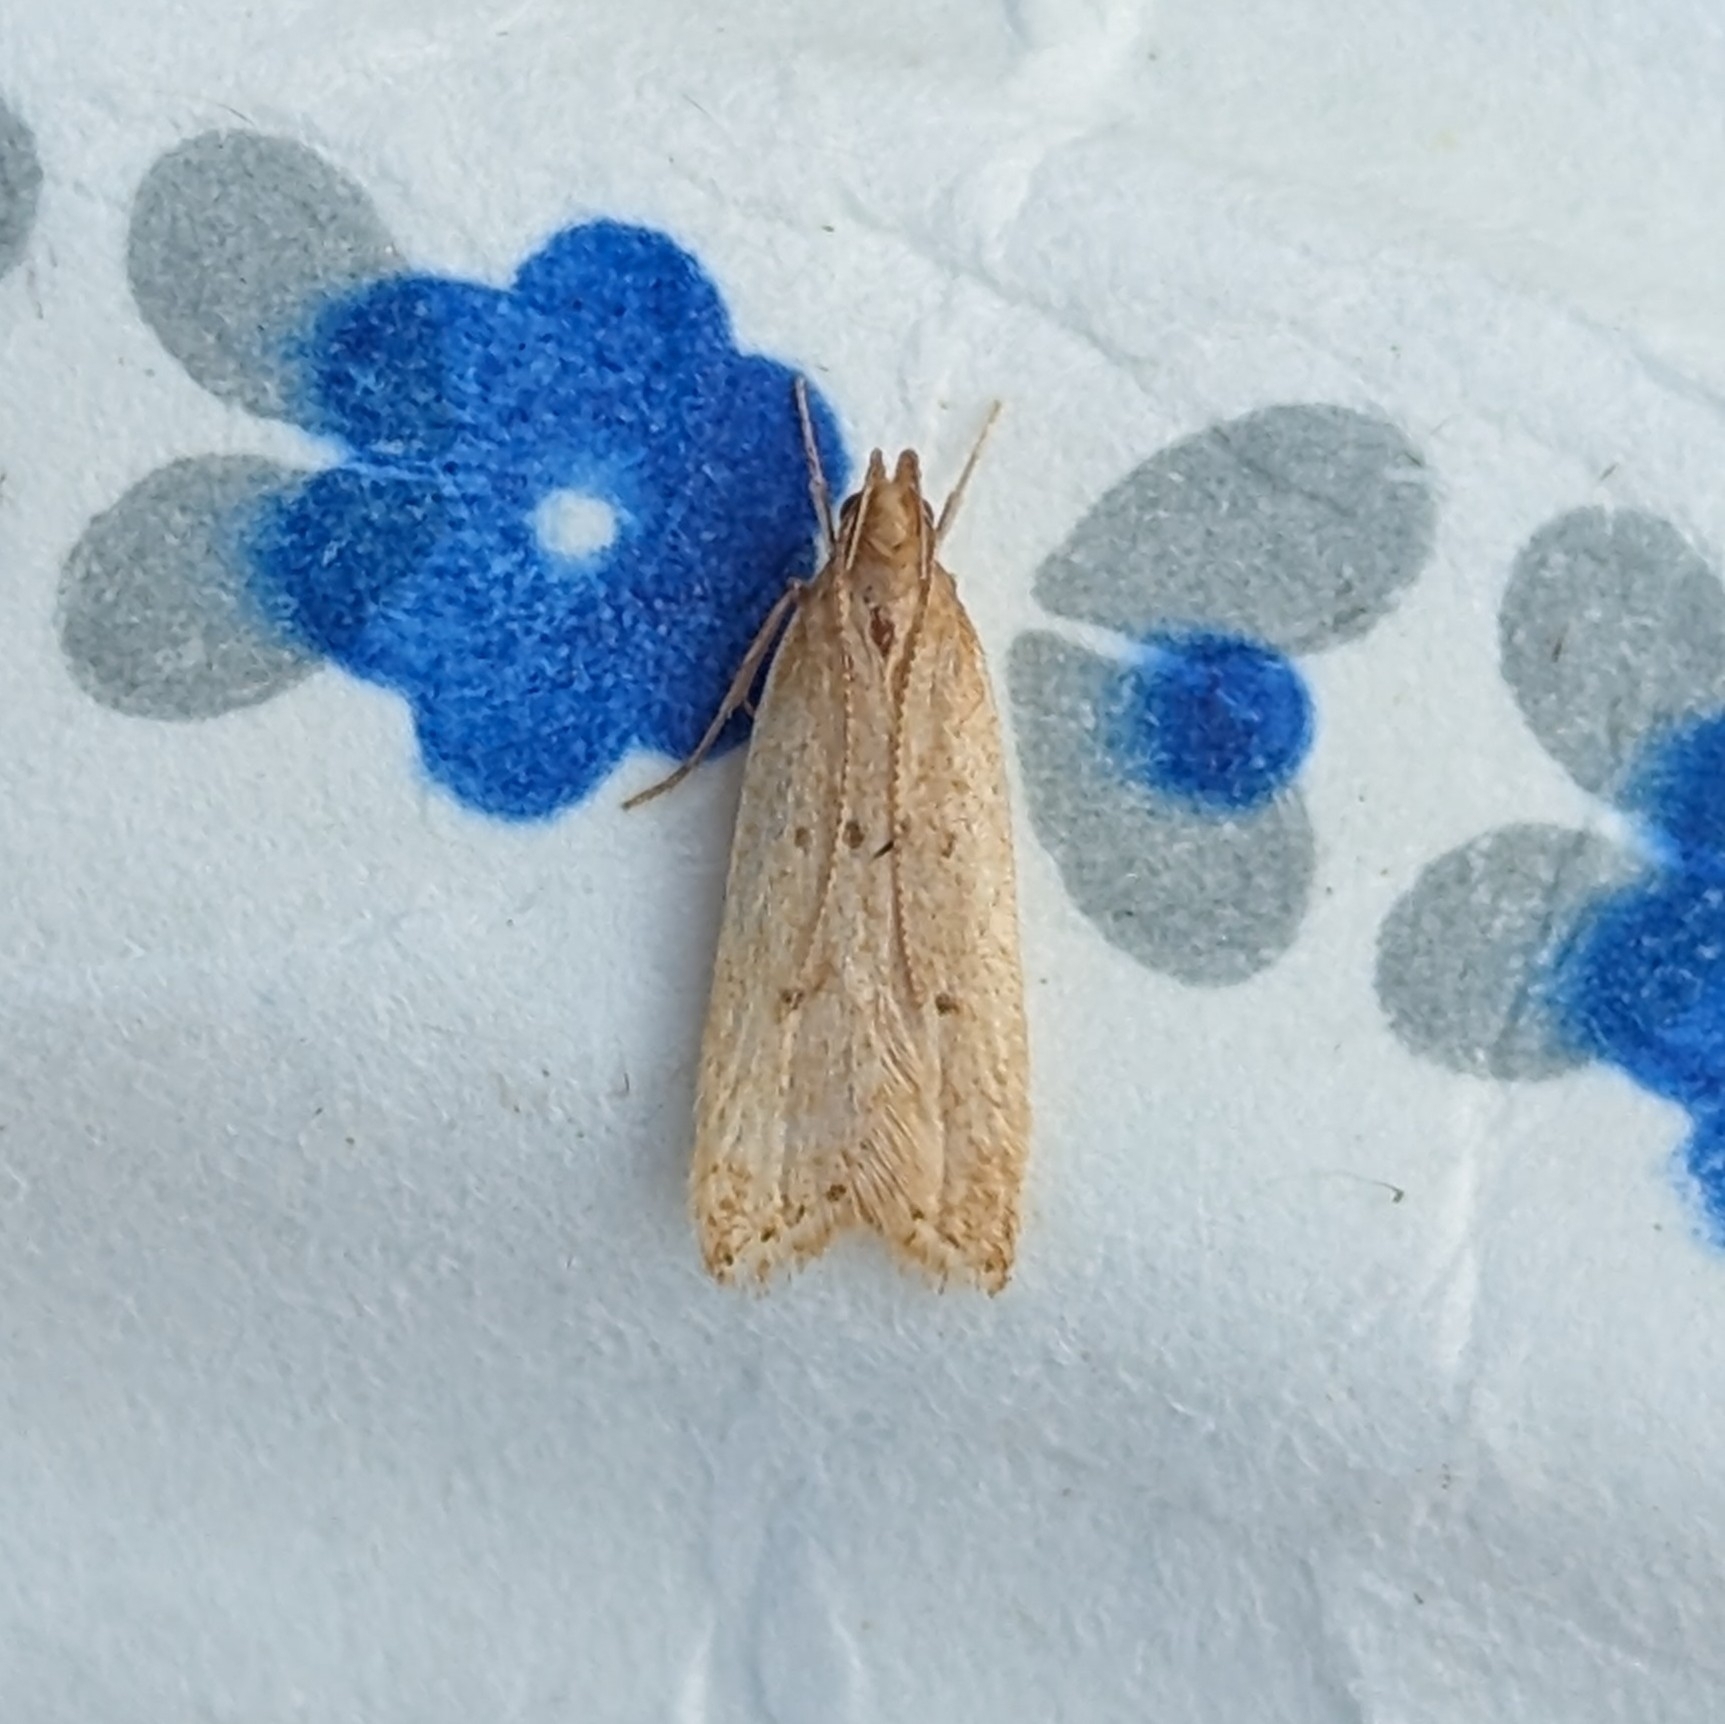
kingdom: Animalia
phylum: Arthropoda
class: Insecta
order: Lepidoptera
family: Gelechiidae
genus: Helcystogramma
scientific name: Helcystogramma badia
